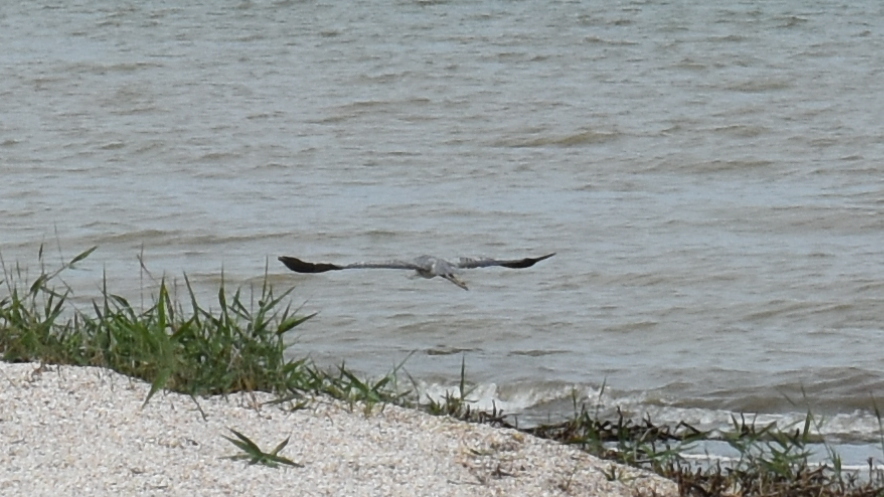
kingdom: Animalia
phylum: Chordata
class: Aves
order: Pelecaniformes
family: Ardeidae
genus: Ardea
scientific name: Ardea cinerea
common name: Grey heron
